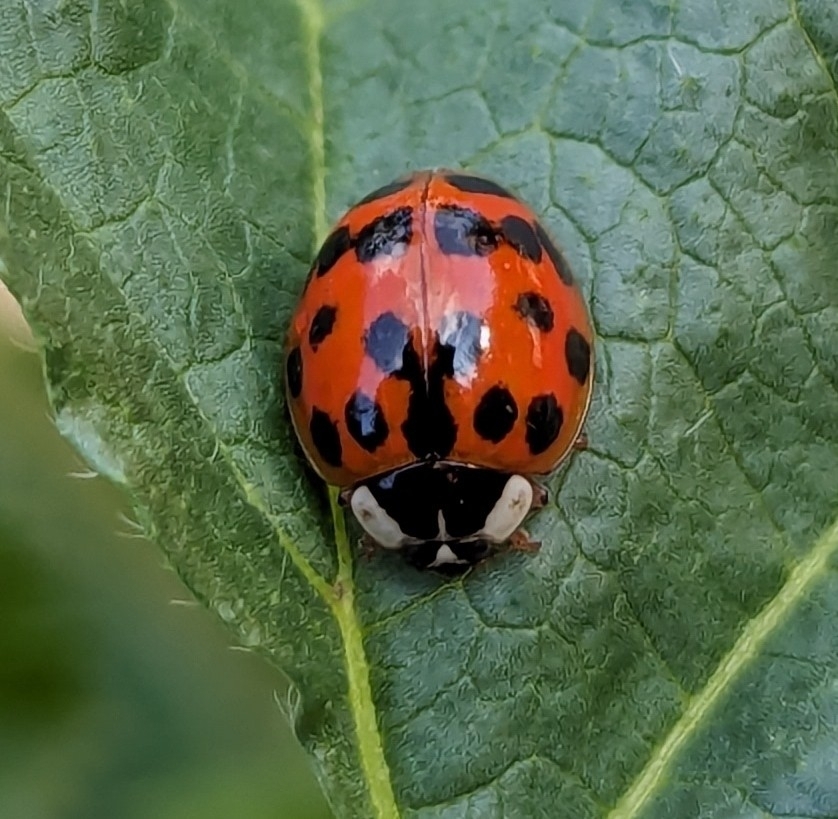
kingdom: Animalia
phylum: Arthropoda
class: Insecta
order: Coleoptera
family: Coccinellidae
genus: Harmonia
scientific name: Harmonia axyridis
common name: Harlequin ladybird
